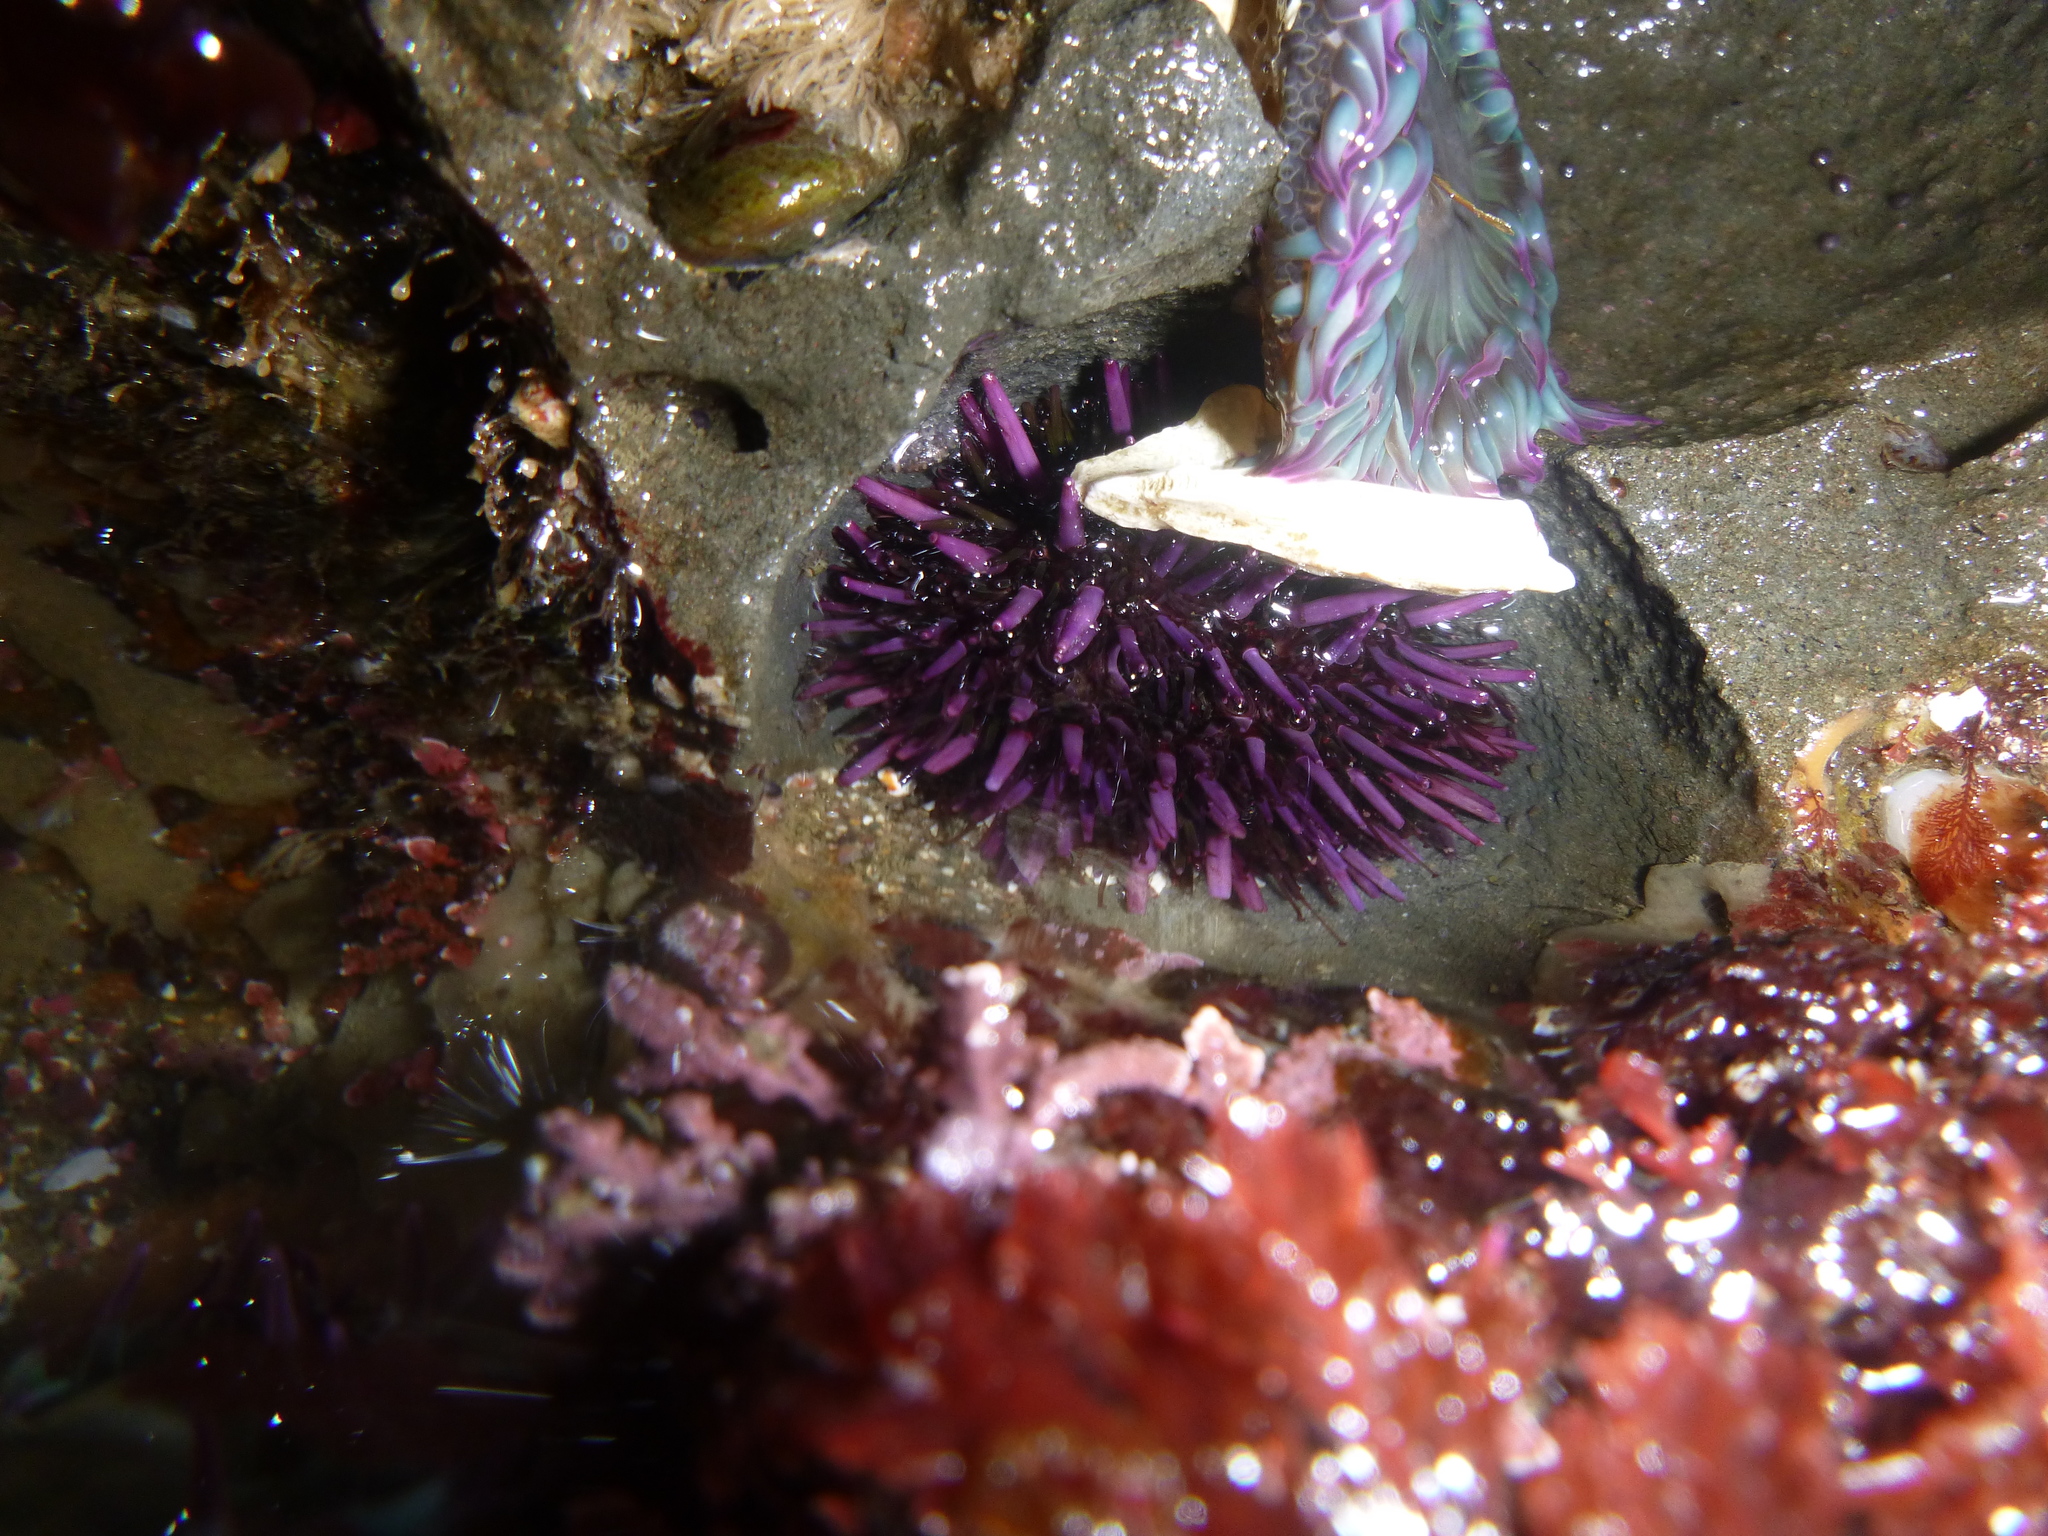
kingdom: Animalia
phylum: Echinodermata
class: Echinoidea
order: Camarodonta
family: Strongylocentrotidae
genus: Strongylocentrotus
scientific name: Strongylocentrotus purpuratus
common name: Purple sea urchin
